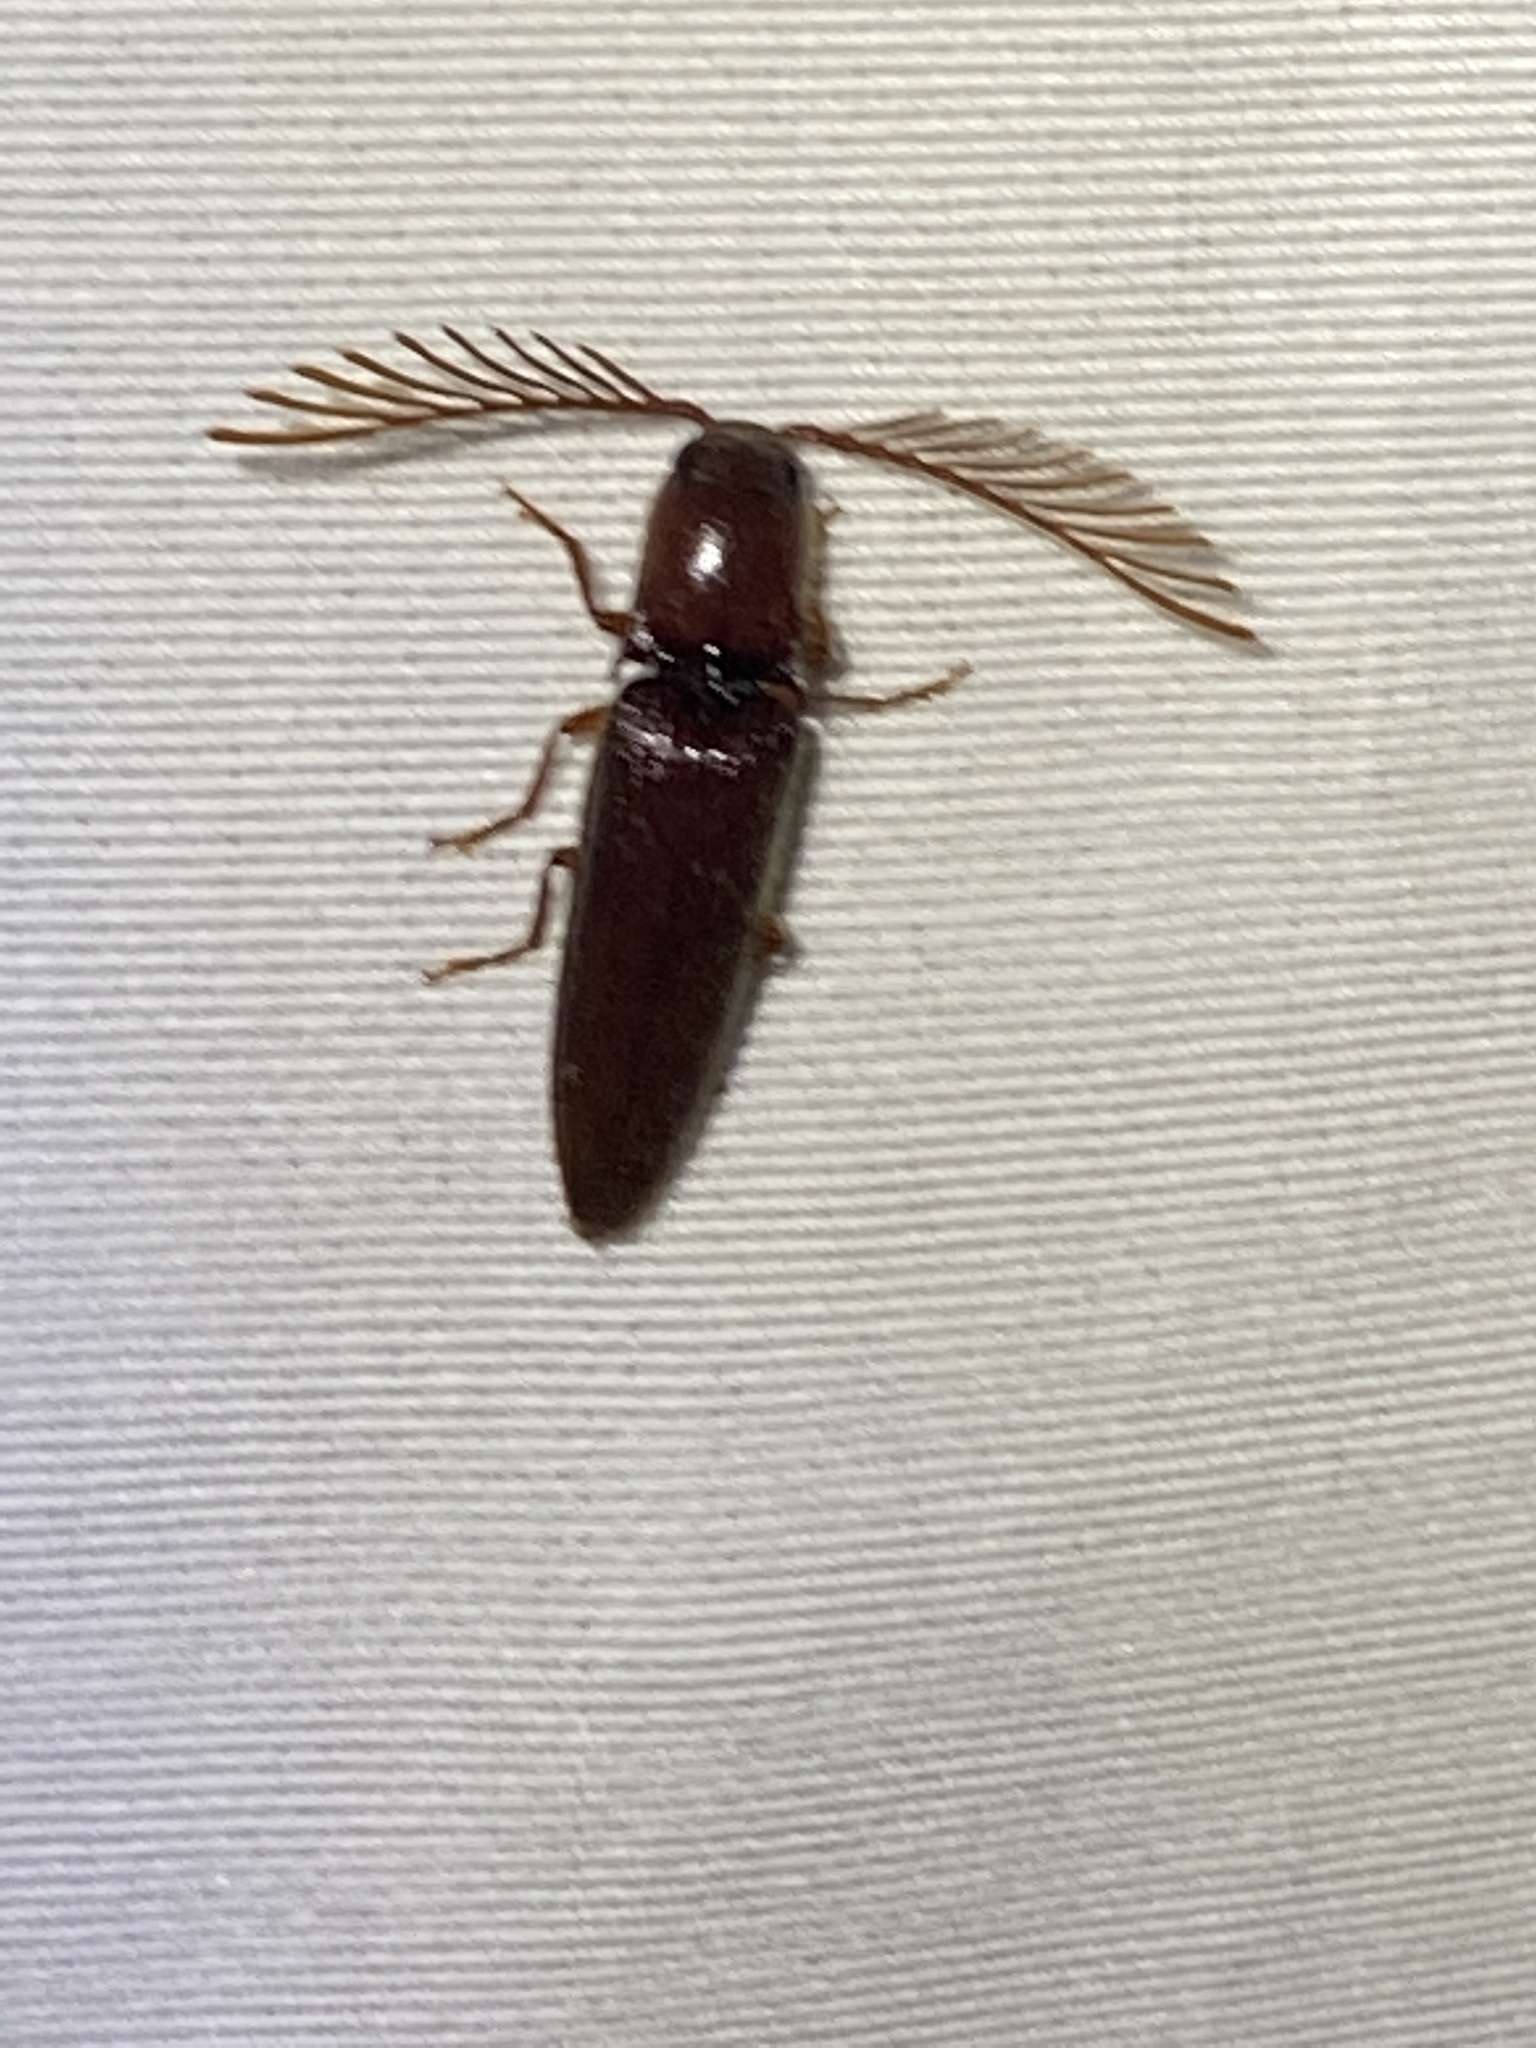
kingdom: Animalia
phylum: Arthropoda
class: Insecta
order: Coleoptera
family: Elateridae
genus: Dicrepidius
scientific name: Dicrepidius palmatus
